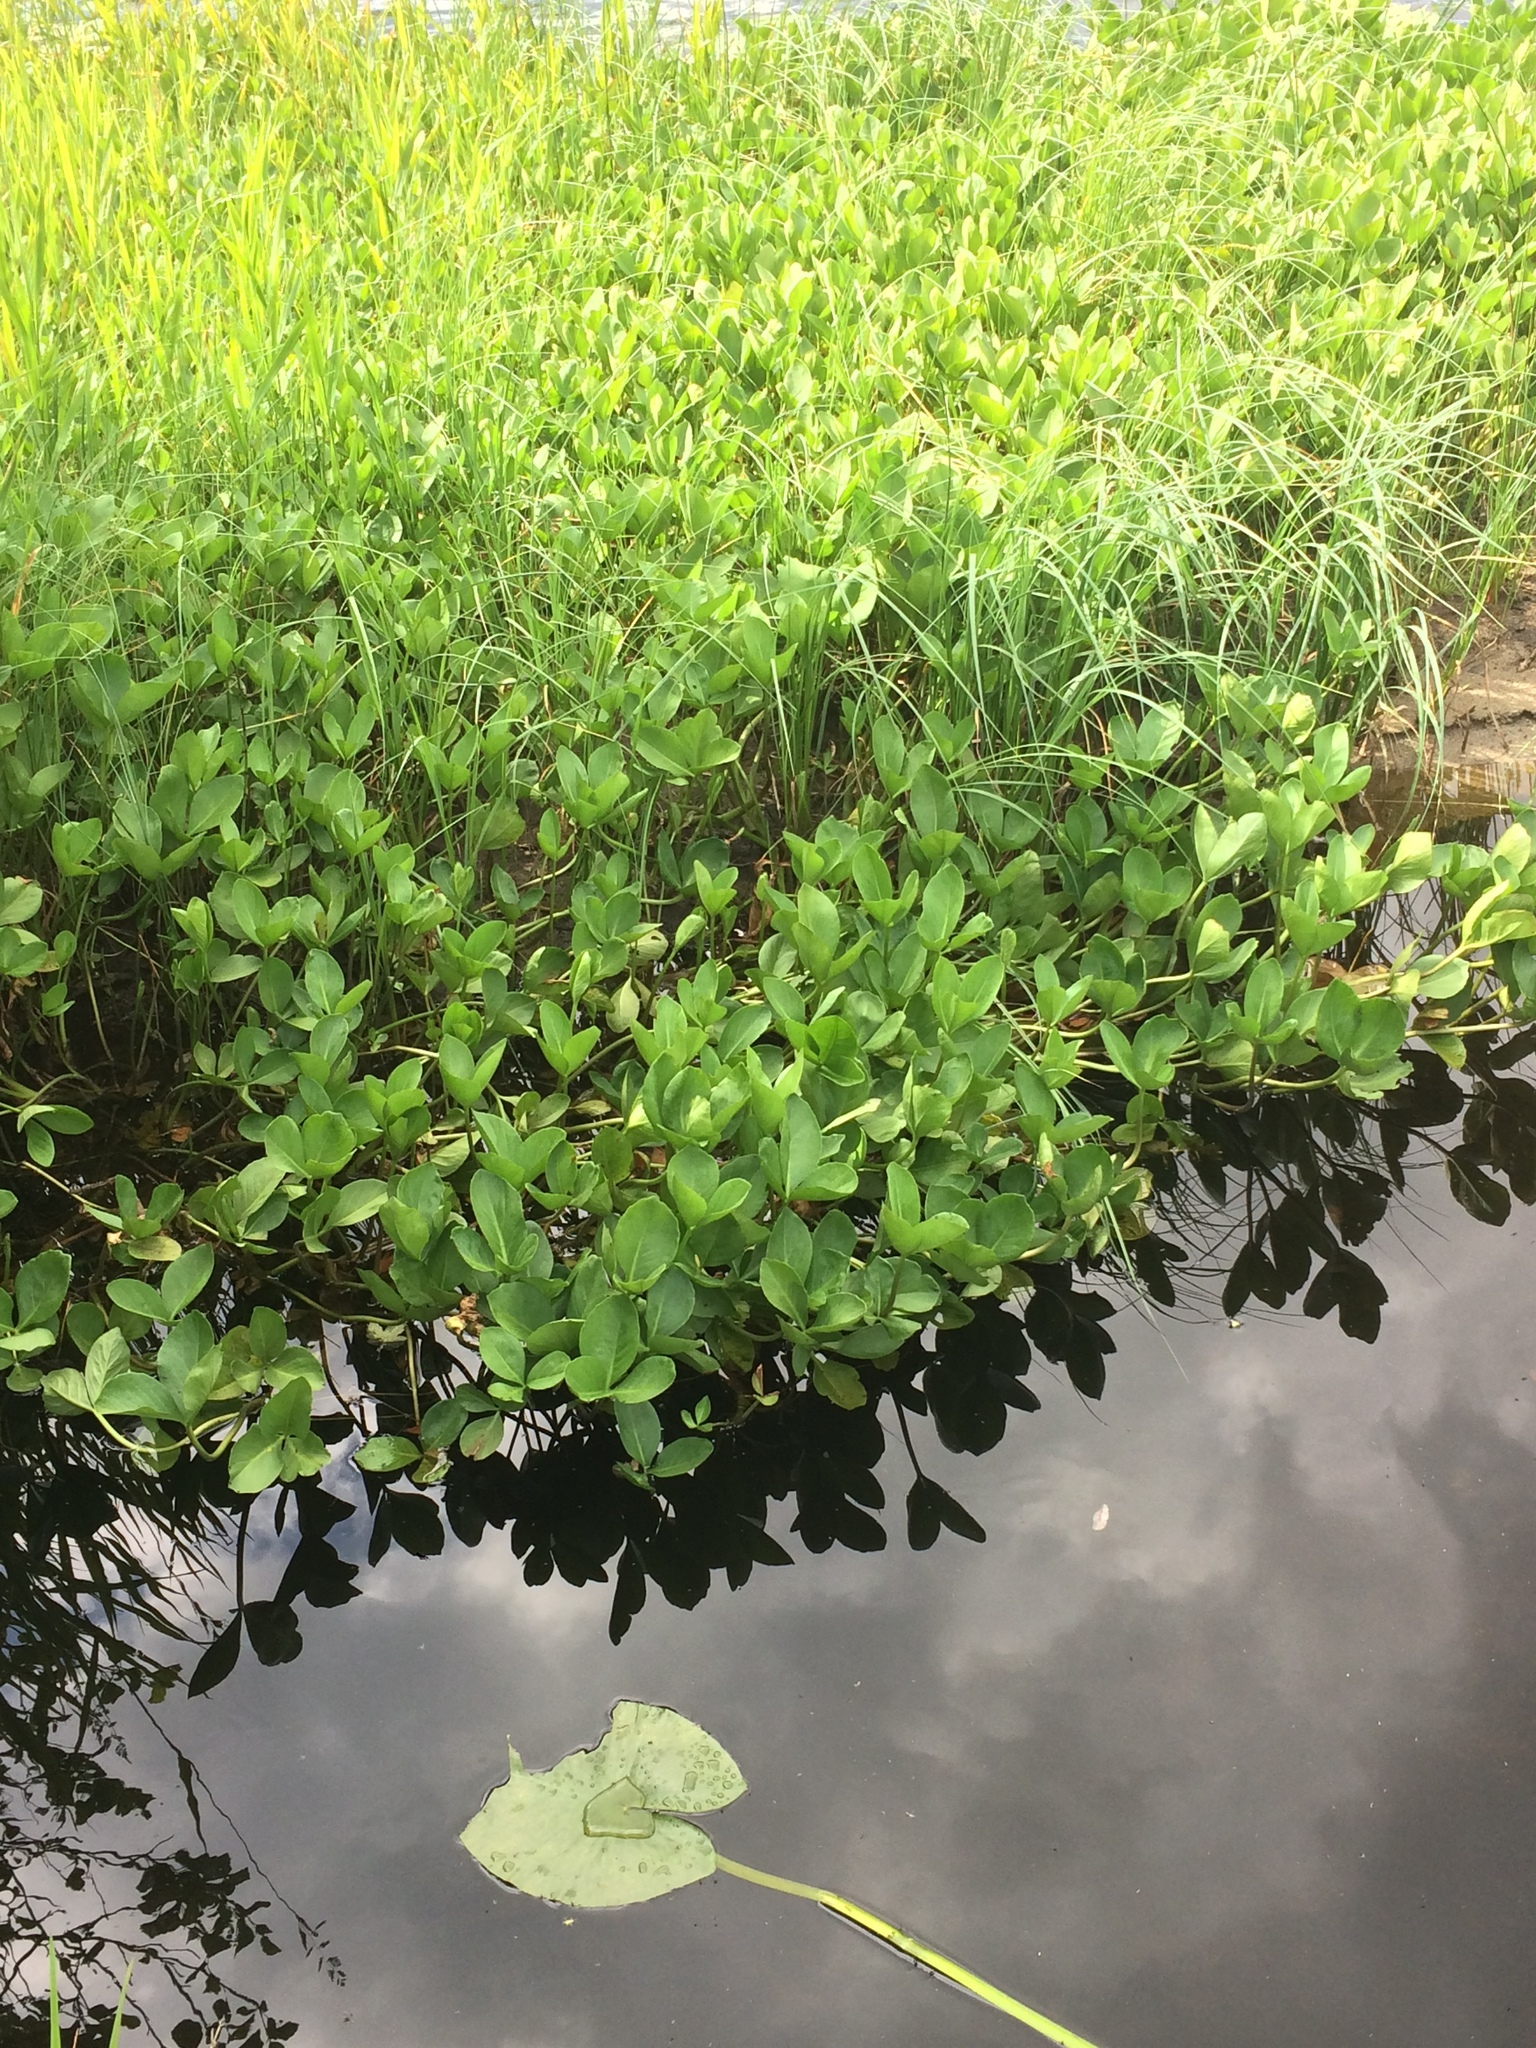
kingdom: Plantae
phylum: Tracheophyta
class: Magnoliopsida
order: Asterales
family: Menyanthaceae
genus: Menyanthes
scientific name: Menyanthes trifoliata
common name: Bogbean
